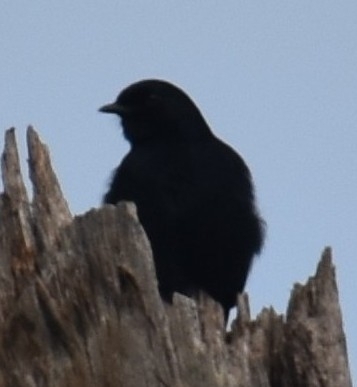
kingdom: Animalia
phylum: Chordata
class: Aves
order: Passeriformes
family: Muscicapidae
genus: Melaenornis
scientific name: Melaenornis pammelaina
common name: Southern black flycatcher
